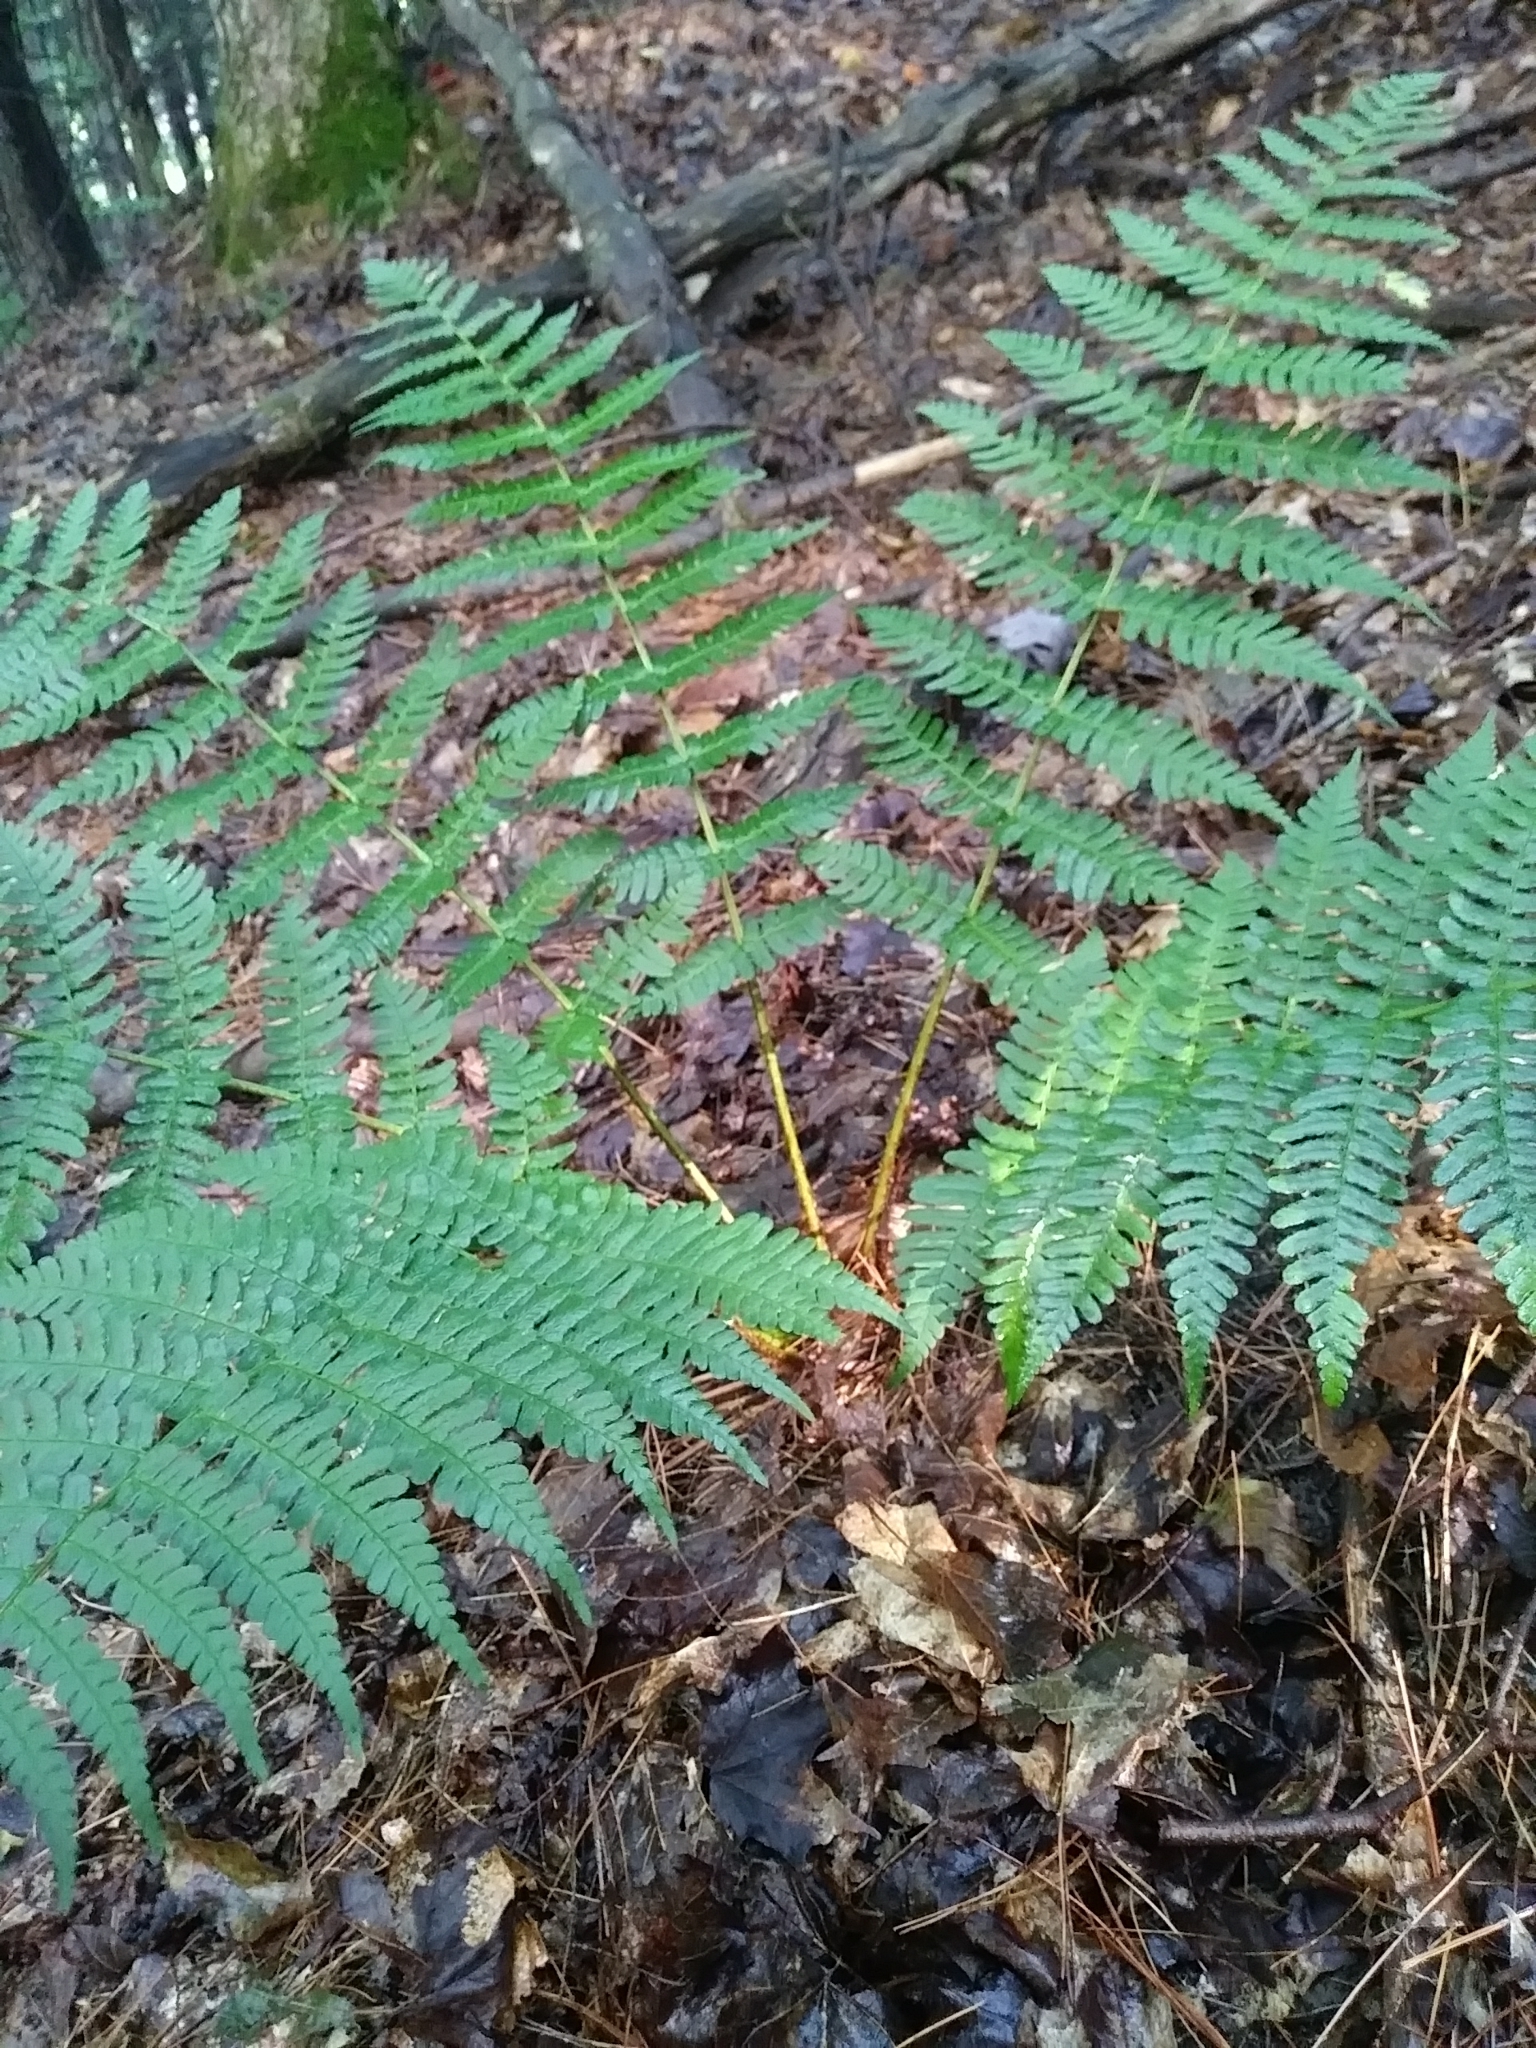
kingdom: Plantae
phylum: Tracheophyta
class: Polypodiopsida
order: Polypodiales
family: Dryopteridaceae
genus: Dryopteris
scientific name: Dryopteris marginalis
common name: Marginal wood fern
